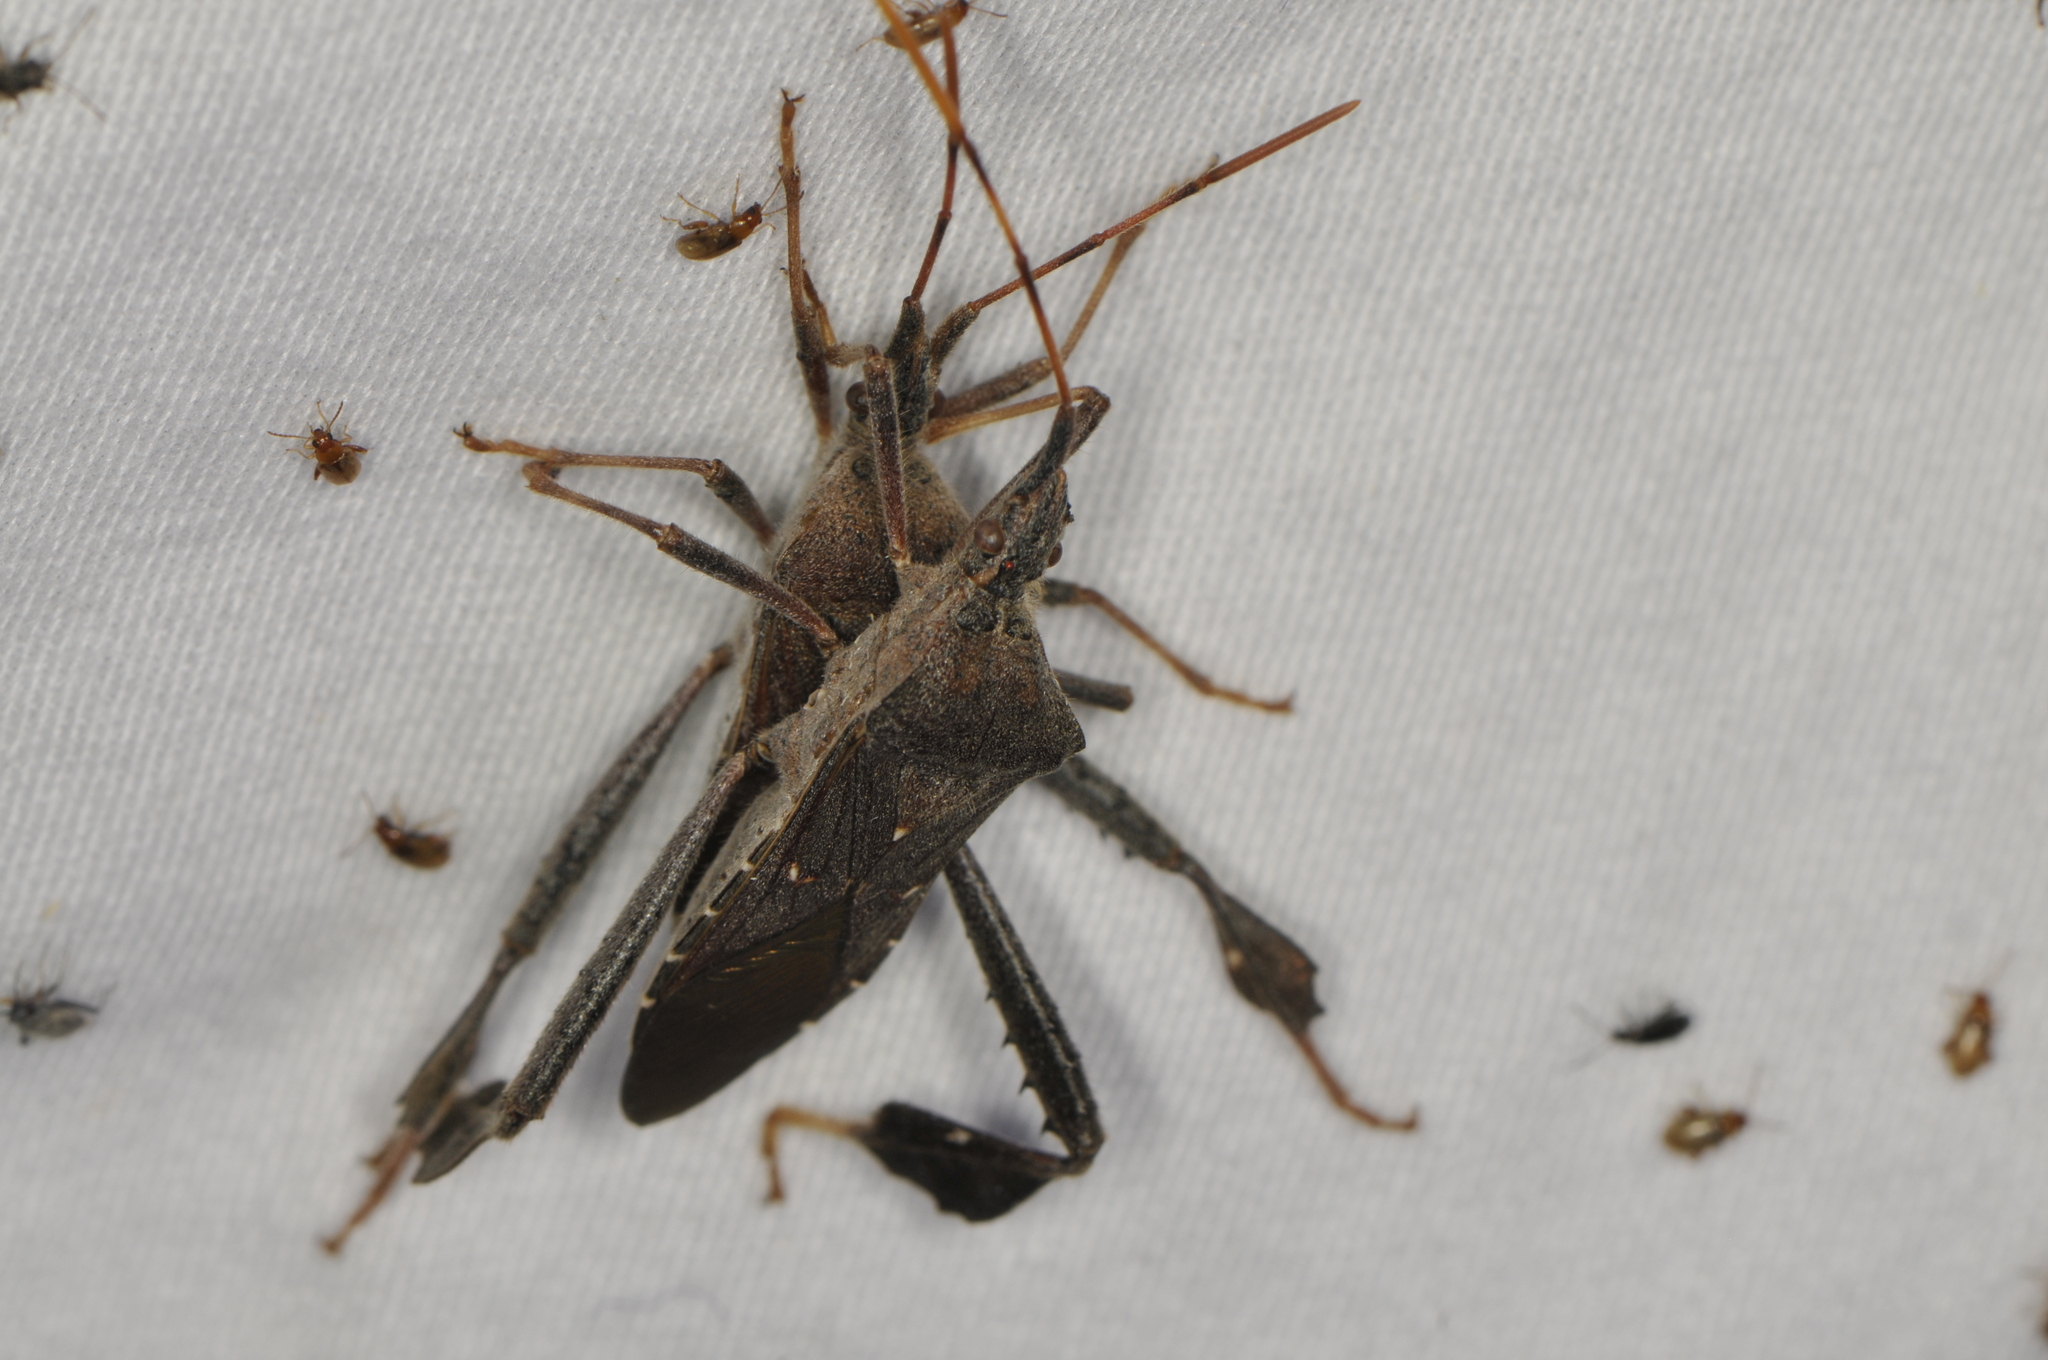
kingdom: Animalia
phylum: Arthropoda
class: Insecta
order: Hemiptera
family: Coreidae
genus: Leptoglossus
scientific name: Leptoglossus oppositus
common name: Northern leaf-footed bug
